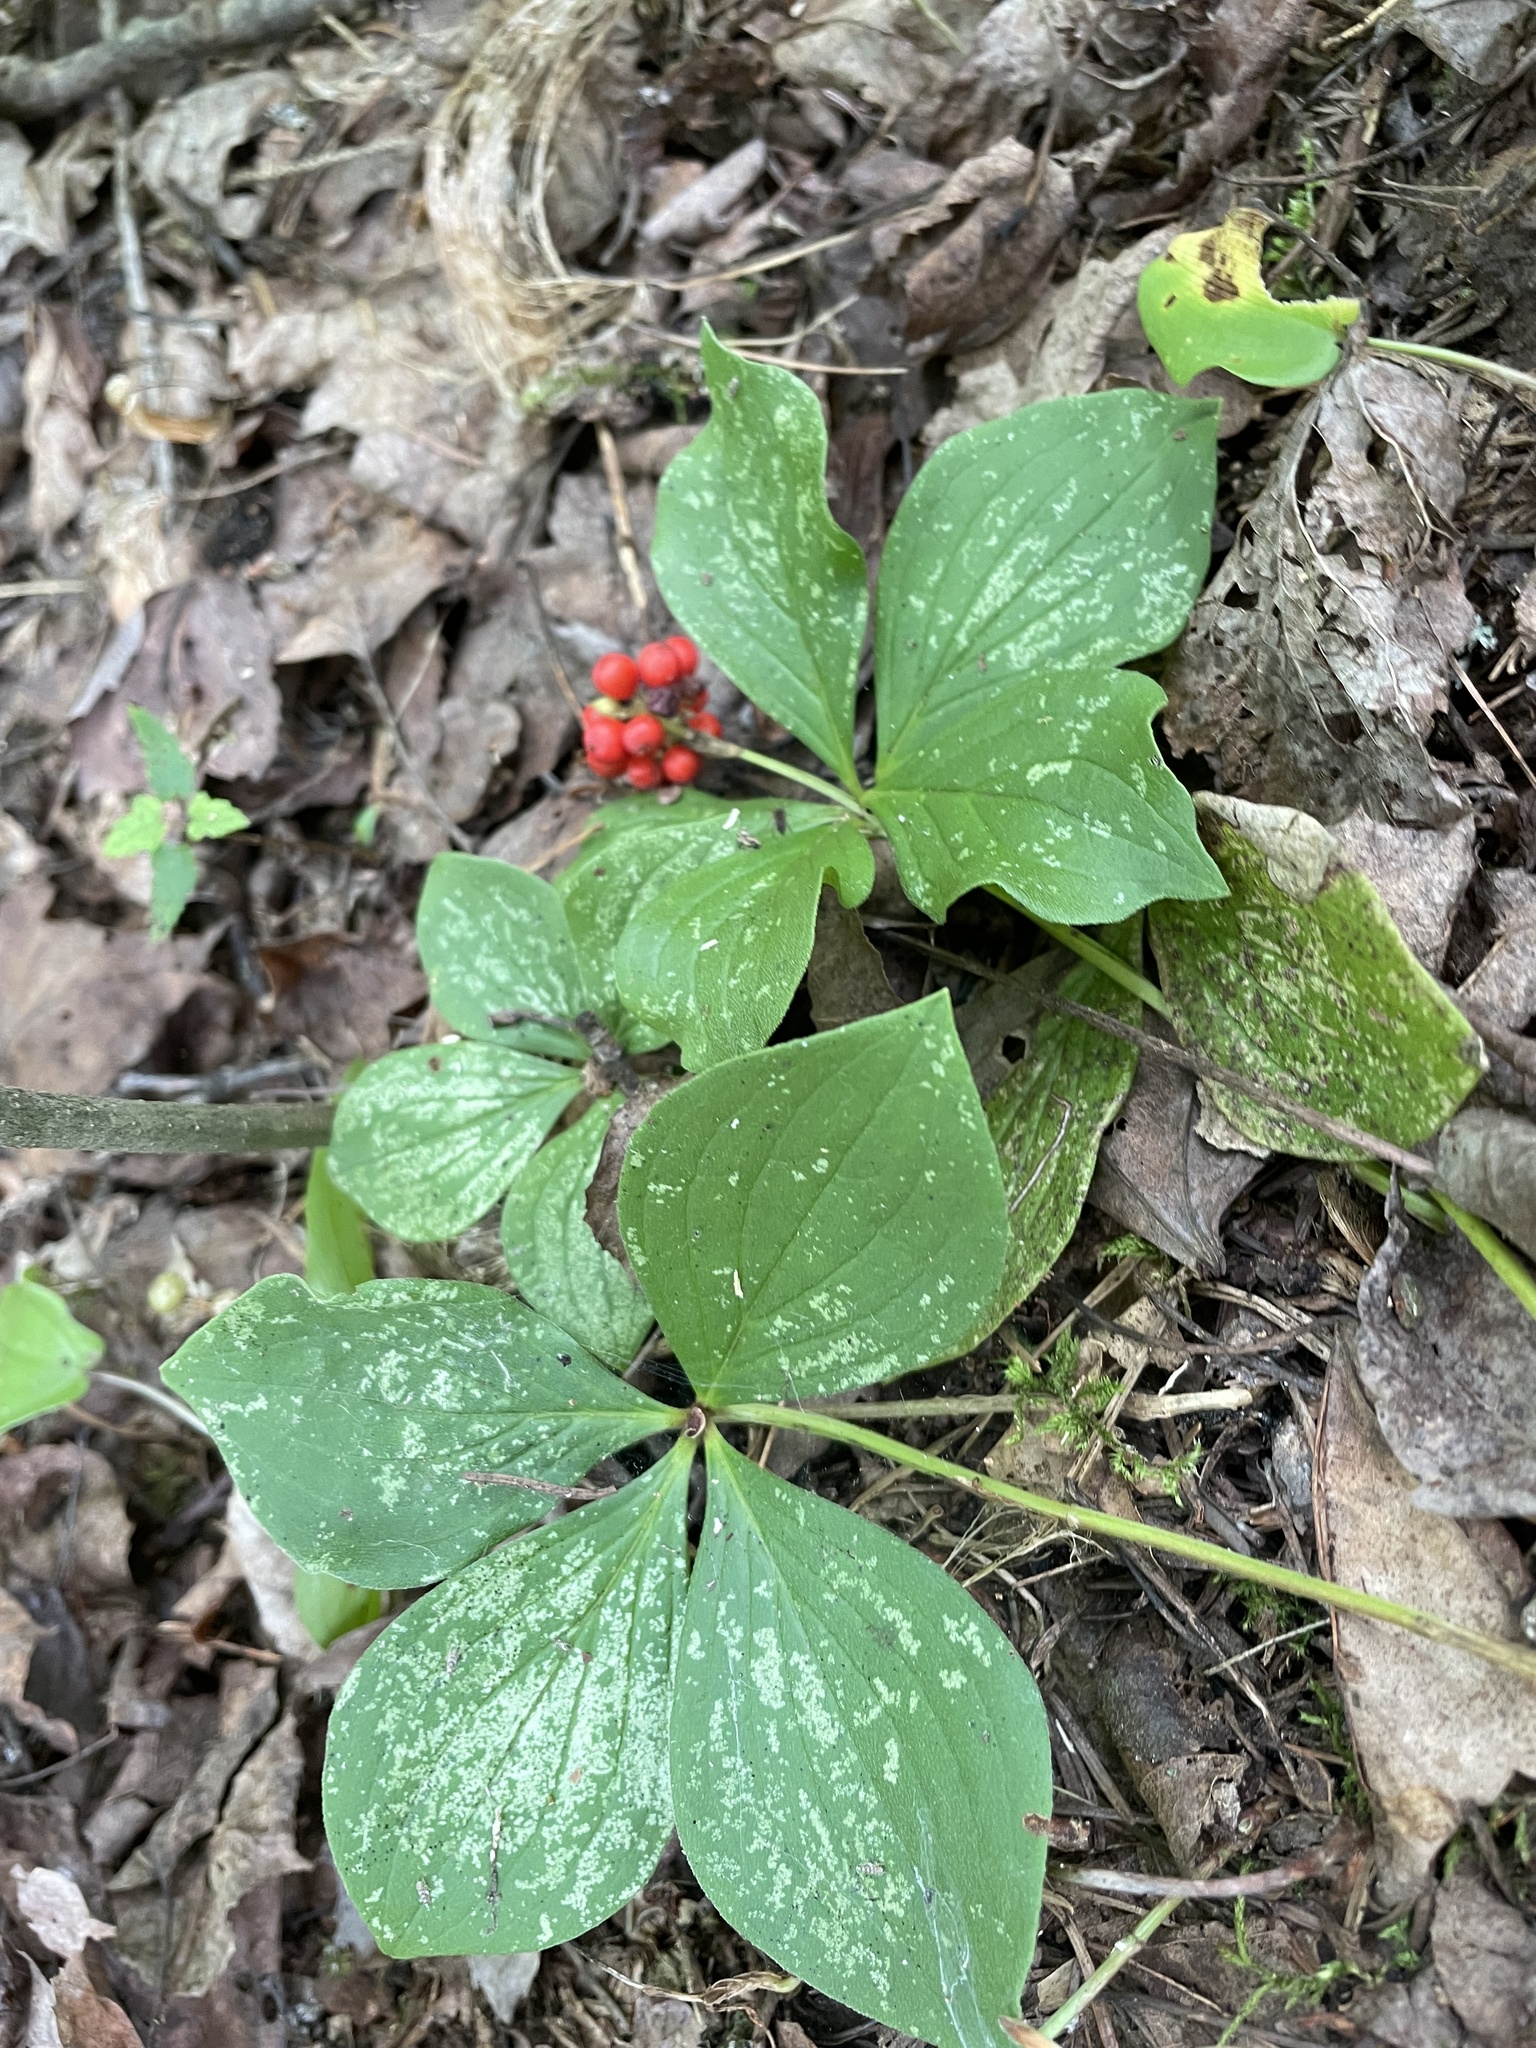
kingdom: Plantae
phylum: Tracheophyta
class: Magnoliopsida
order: Cornales
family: Cornaceae
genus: Cornus
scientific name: Cornus canadensis
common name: Creeping dogwood
